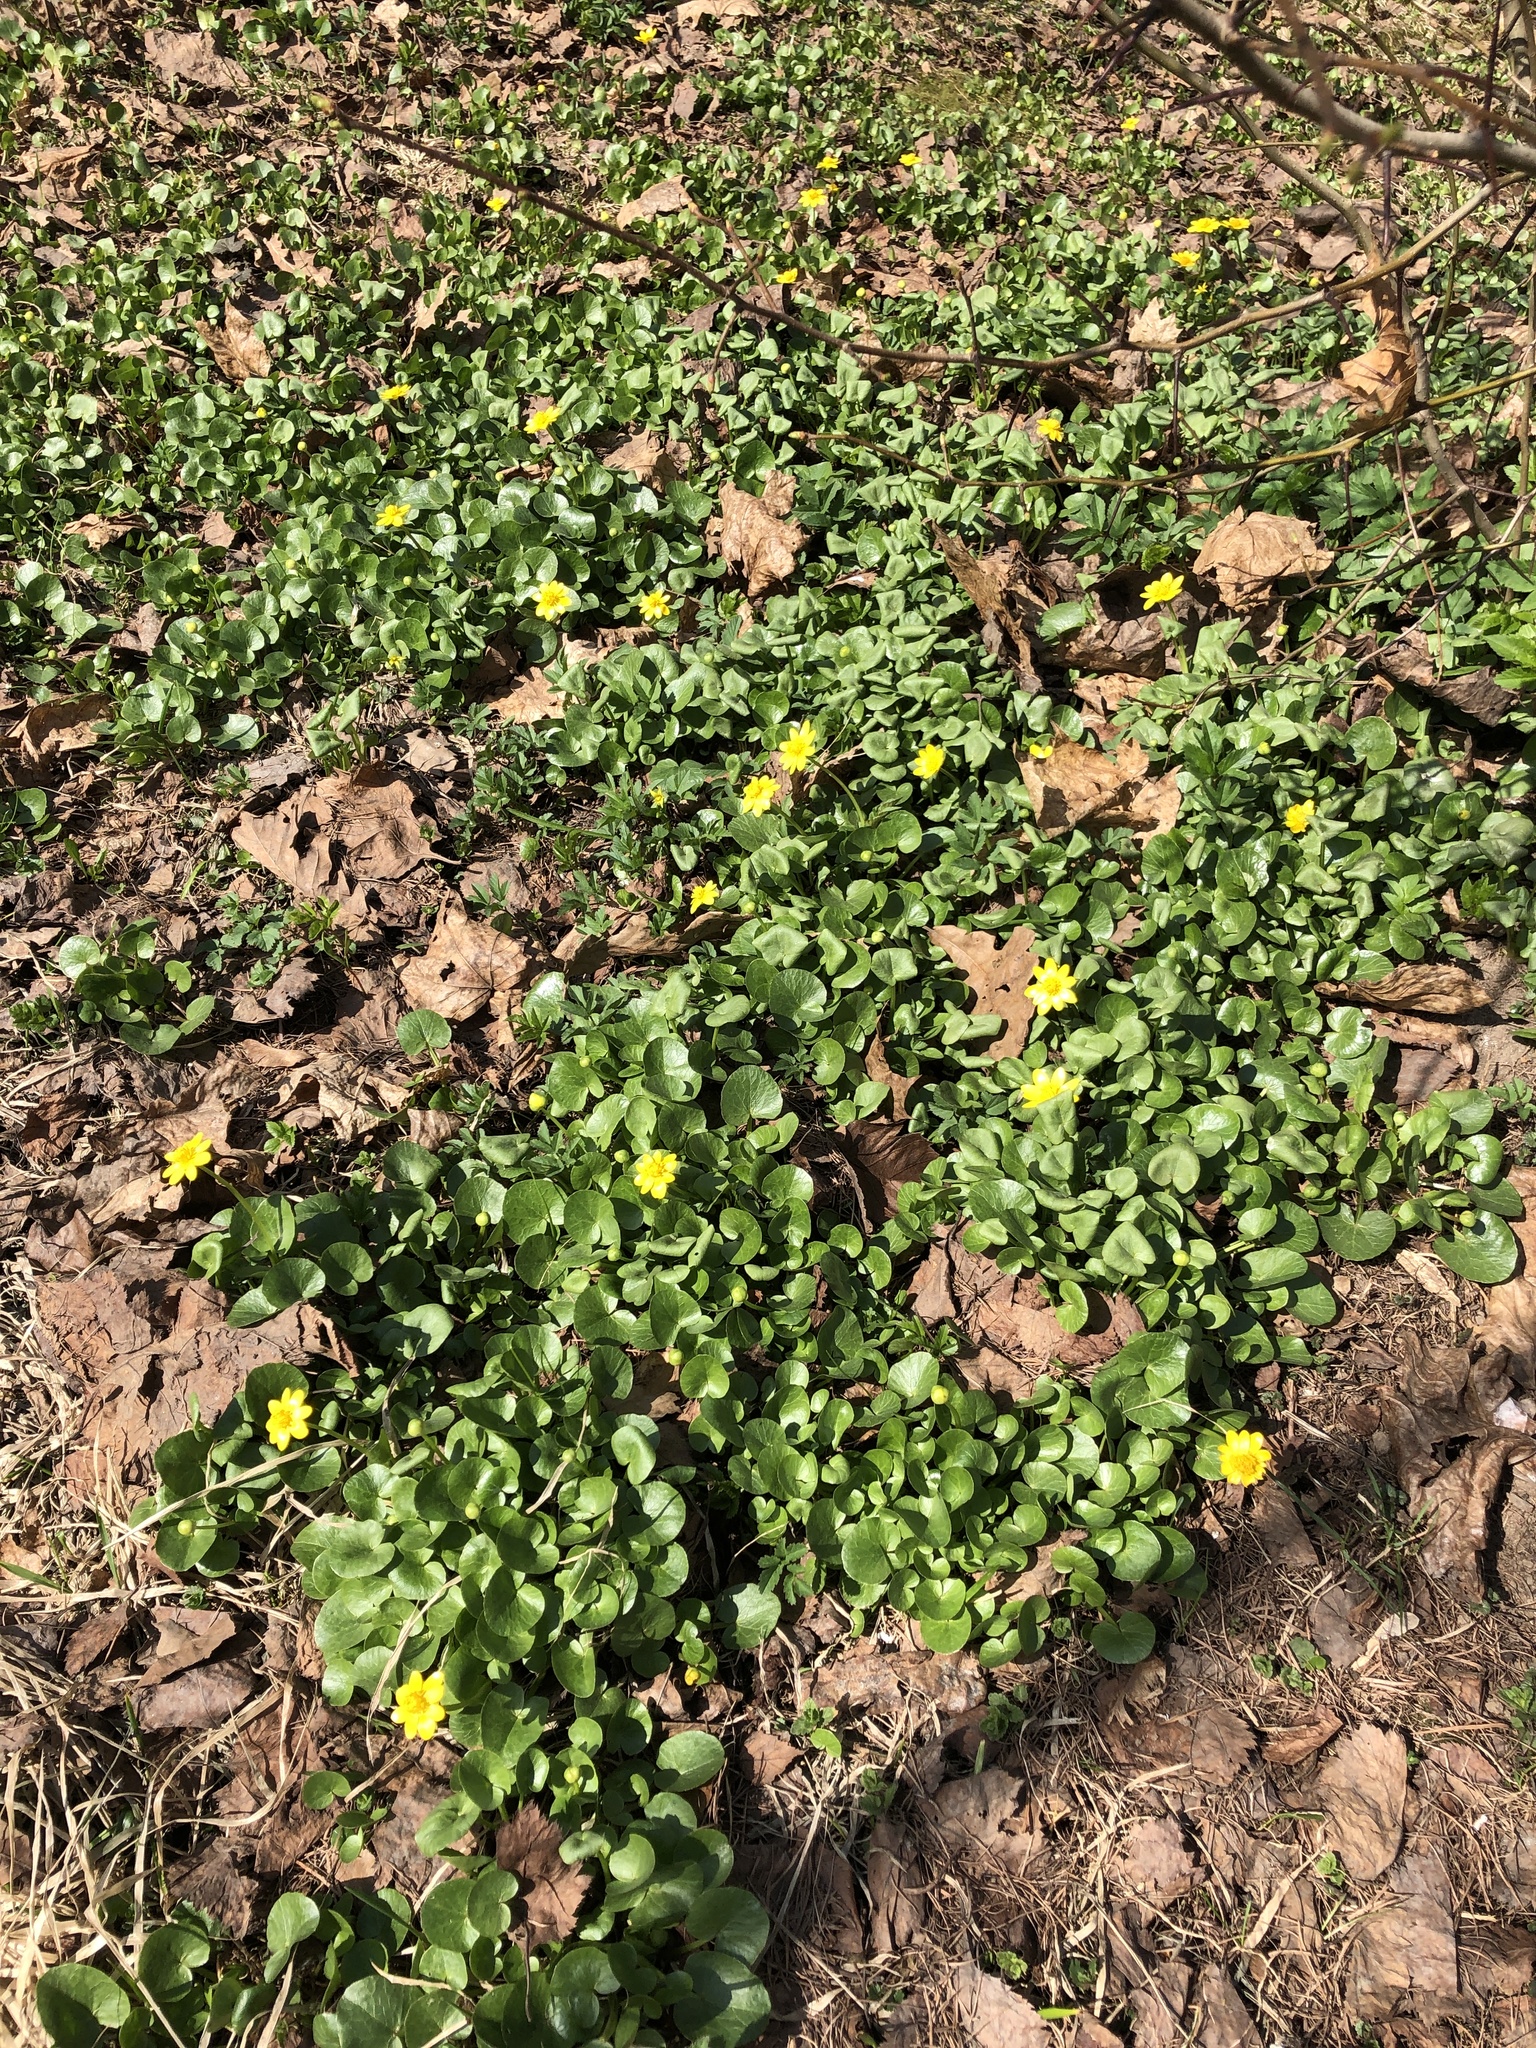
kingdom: Plantae
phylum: Tracheophyta
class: Magnoliopsida
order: Ranunculales
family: Ranunculaceae
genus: Ficaria
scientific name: Ficaria verna
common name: Lesser celandine
